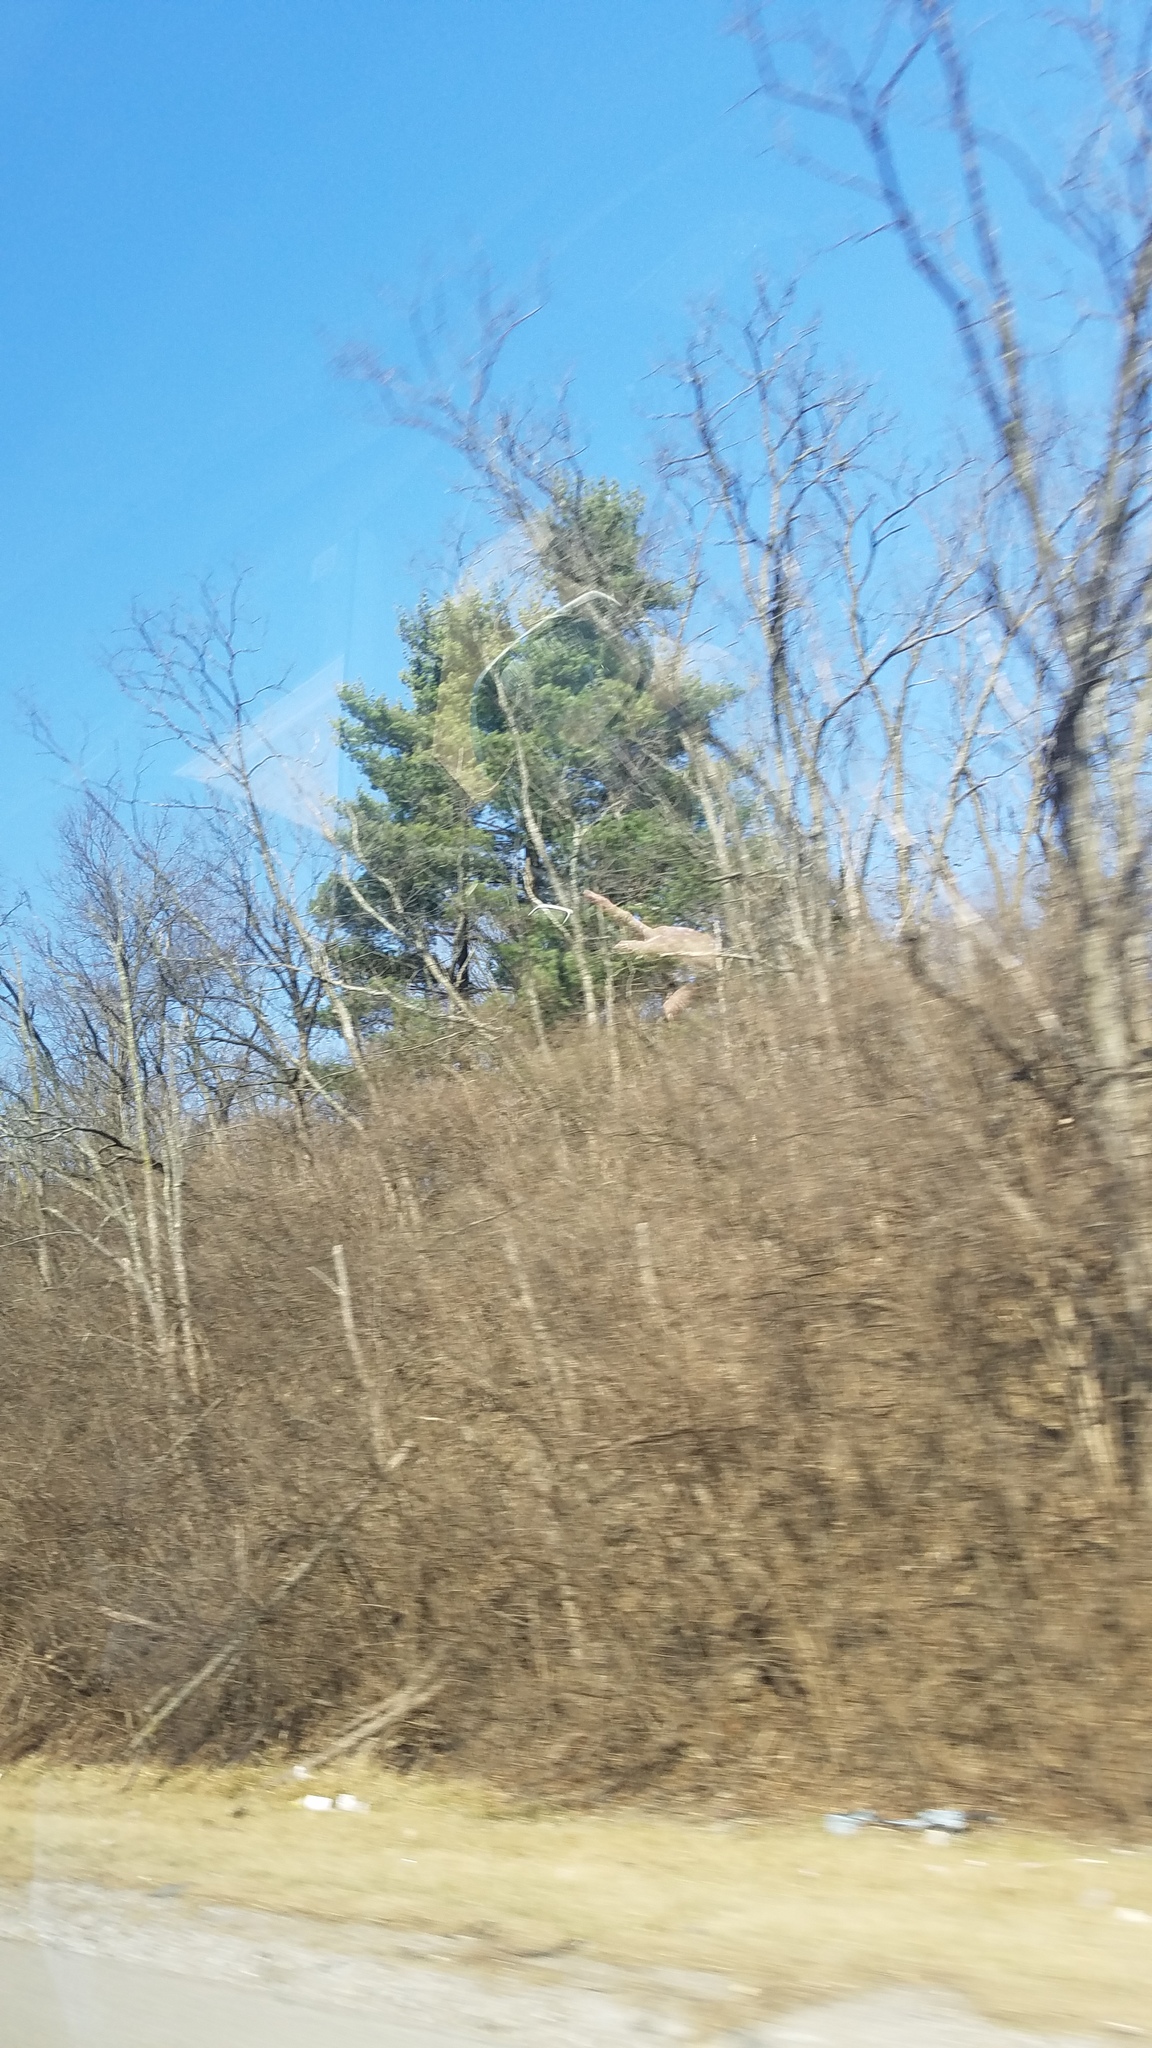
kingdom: Plantae
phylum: Tracheophyta
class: Pinopsida
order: Pinales
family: Pinaceae
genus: Pinus
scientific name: Pinus strobus
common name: Weymouth pine
